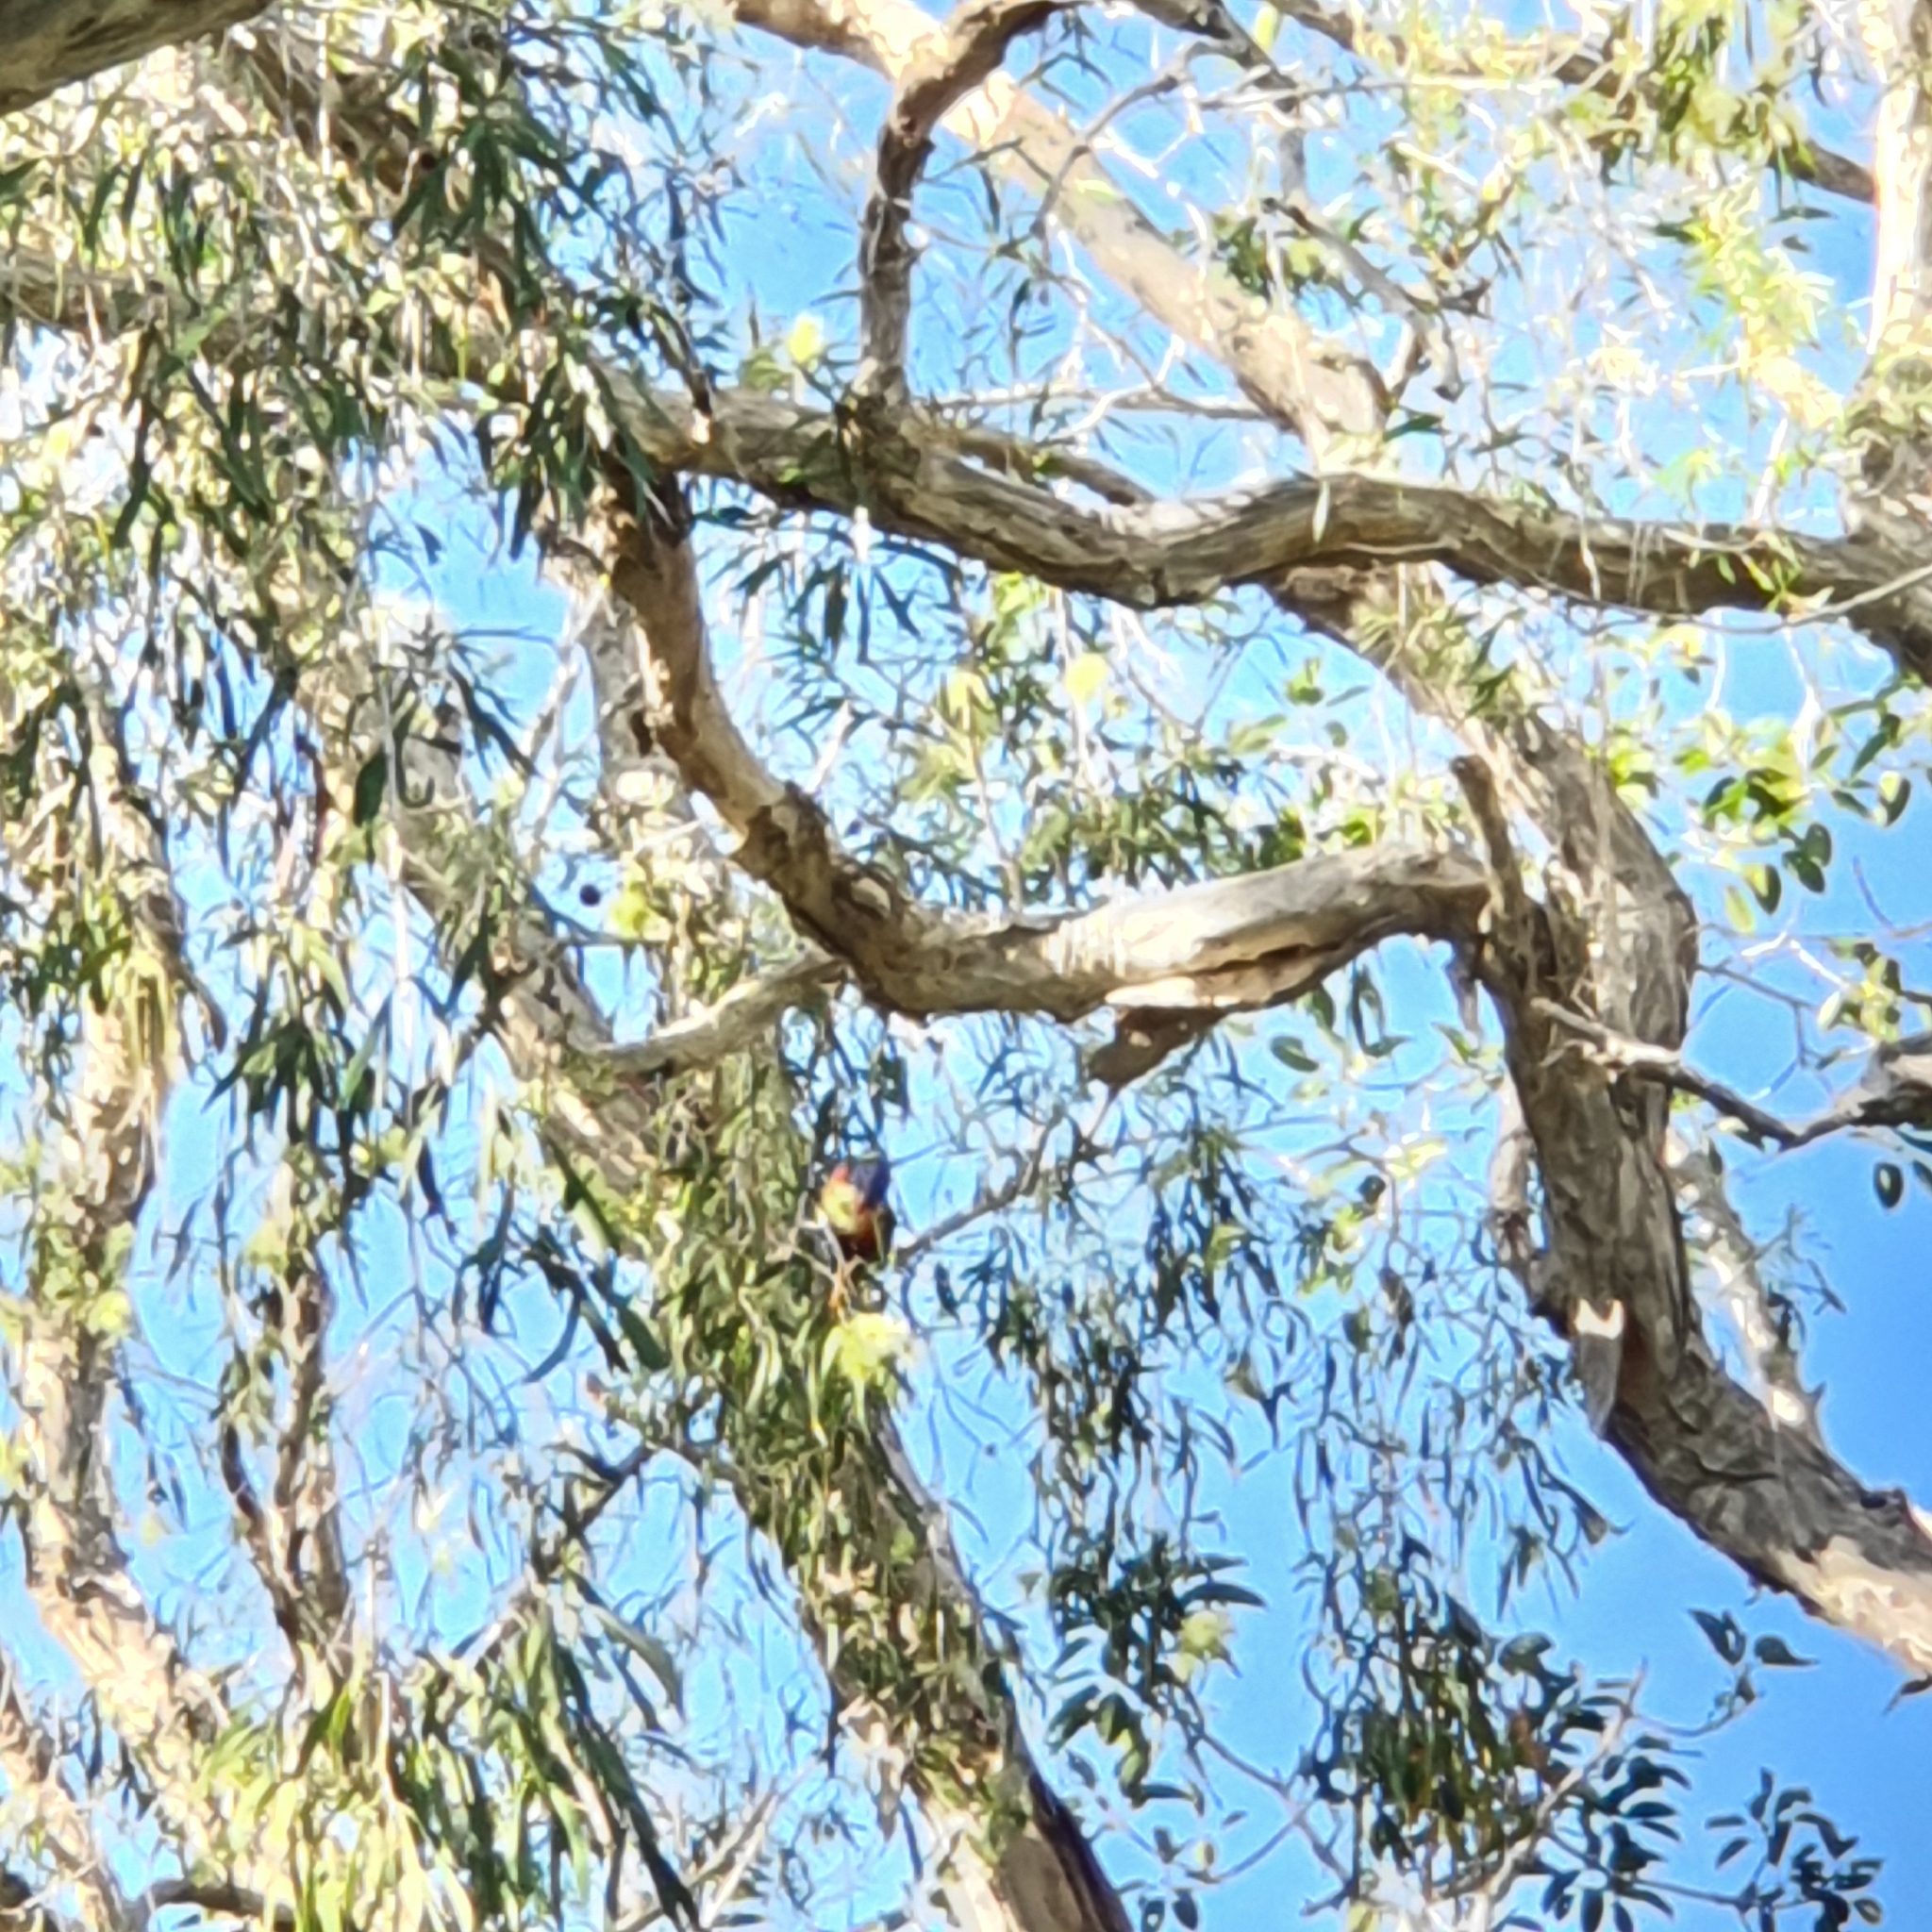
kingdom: Animalia
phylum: Chordata
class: Aves
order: Psittaciformes
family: Psittacidae
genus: Trichoglossus
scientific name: Trichoglossus haematodus
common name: Coconut lorikeet
